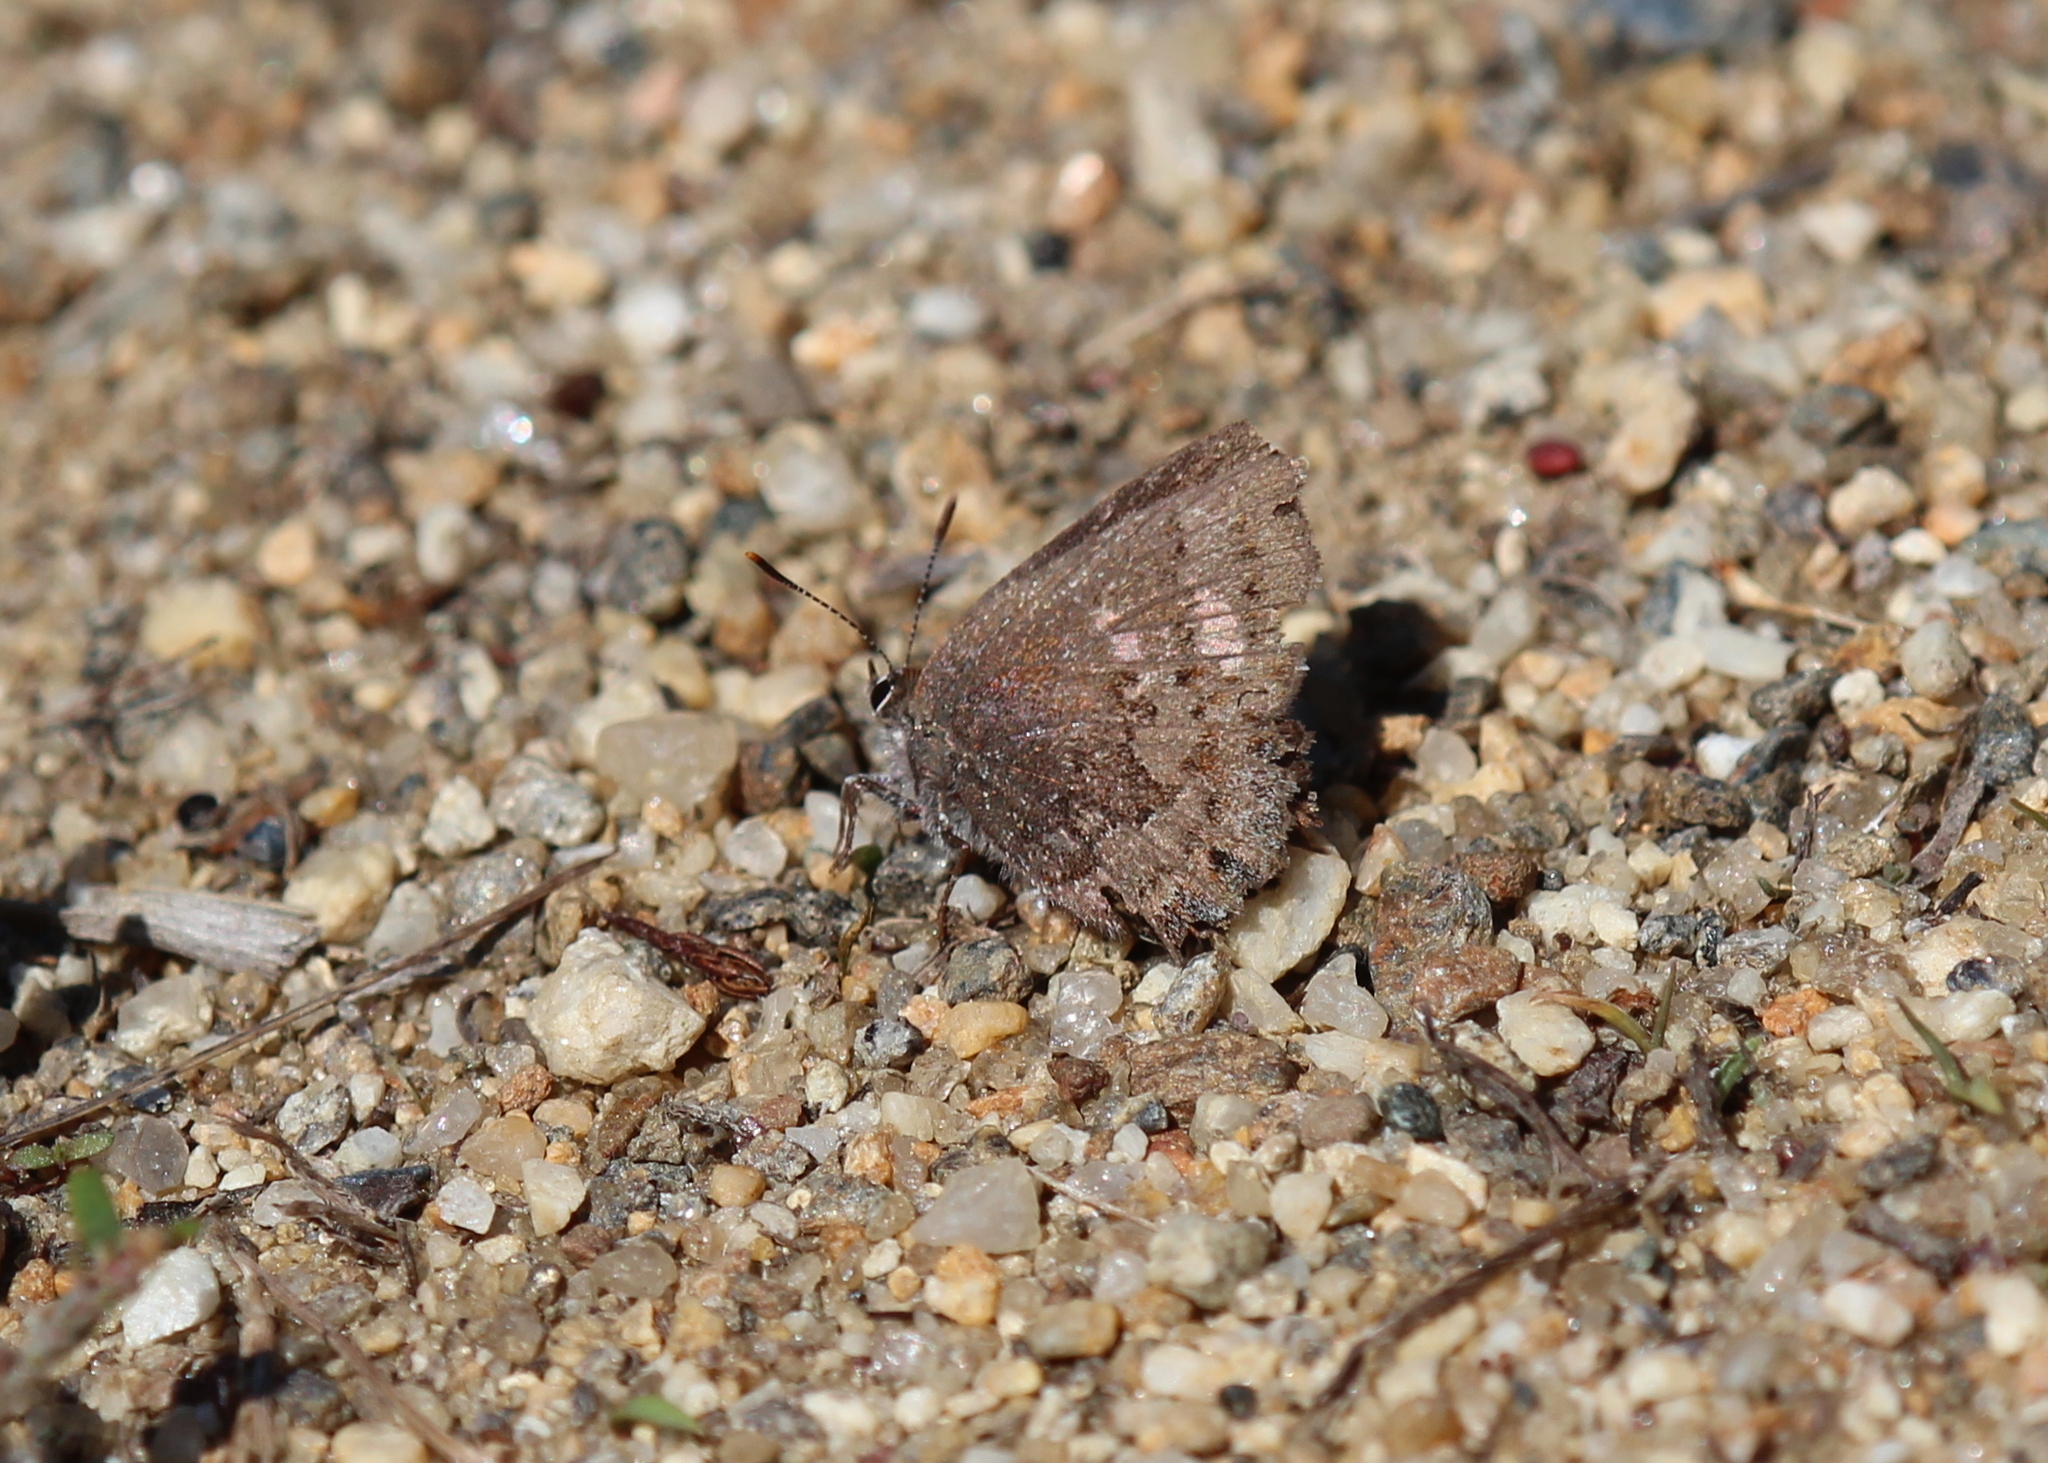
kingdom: Animalia
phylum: Arthropoda
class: Insecta
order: Lepidoptera
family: Lycaenidae
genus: Thecla
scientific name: Thecla irus
